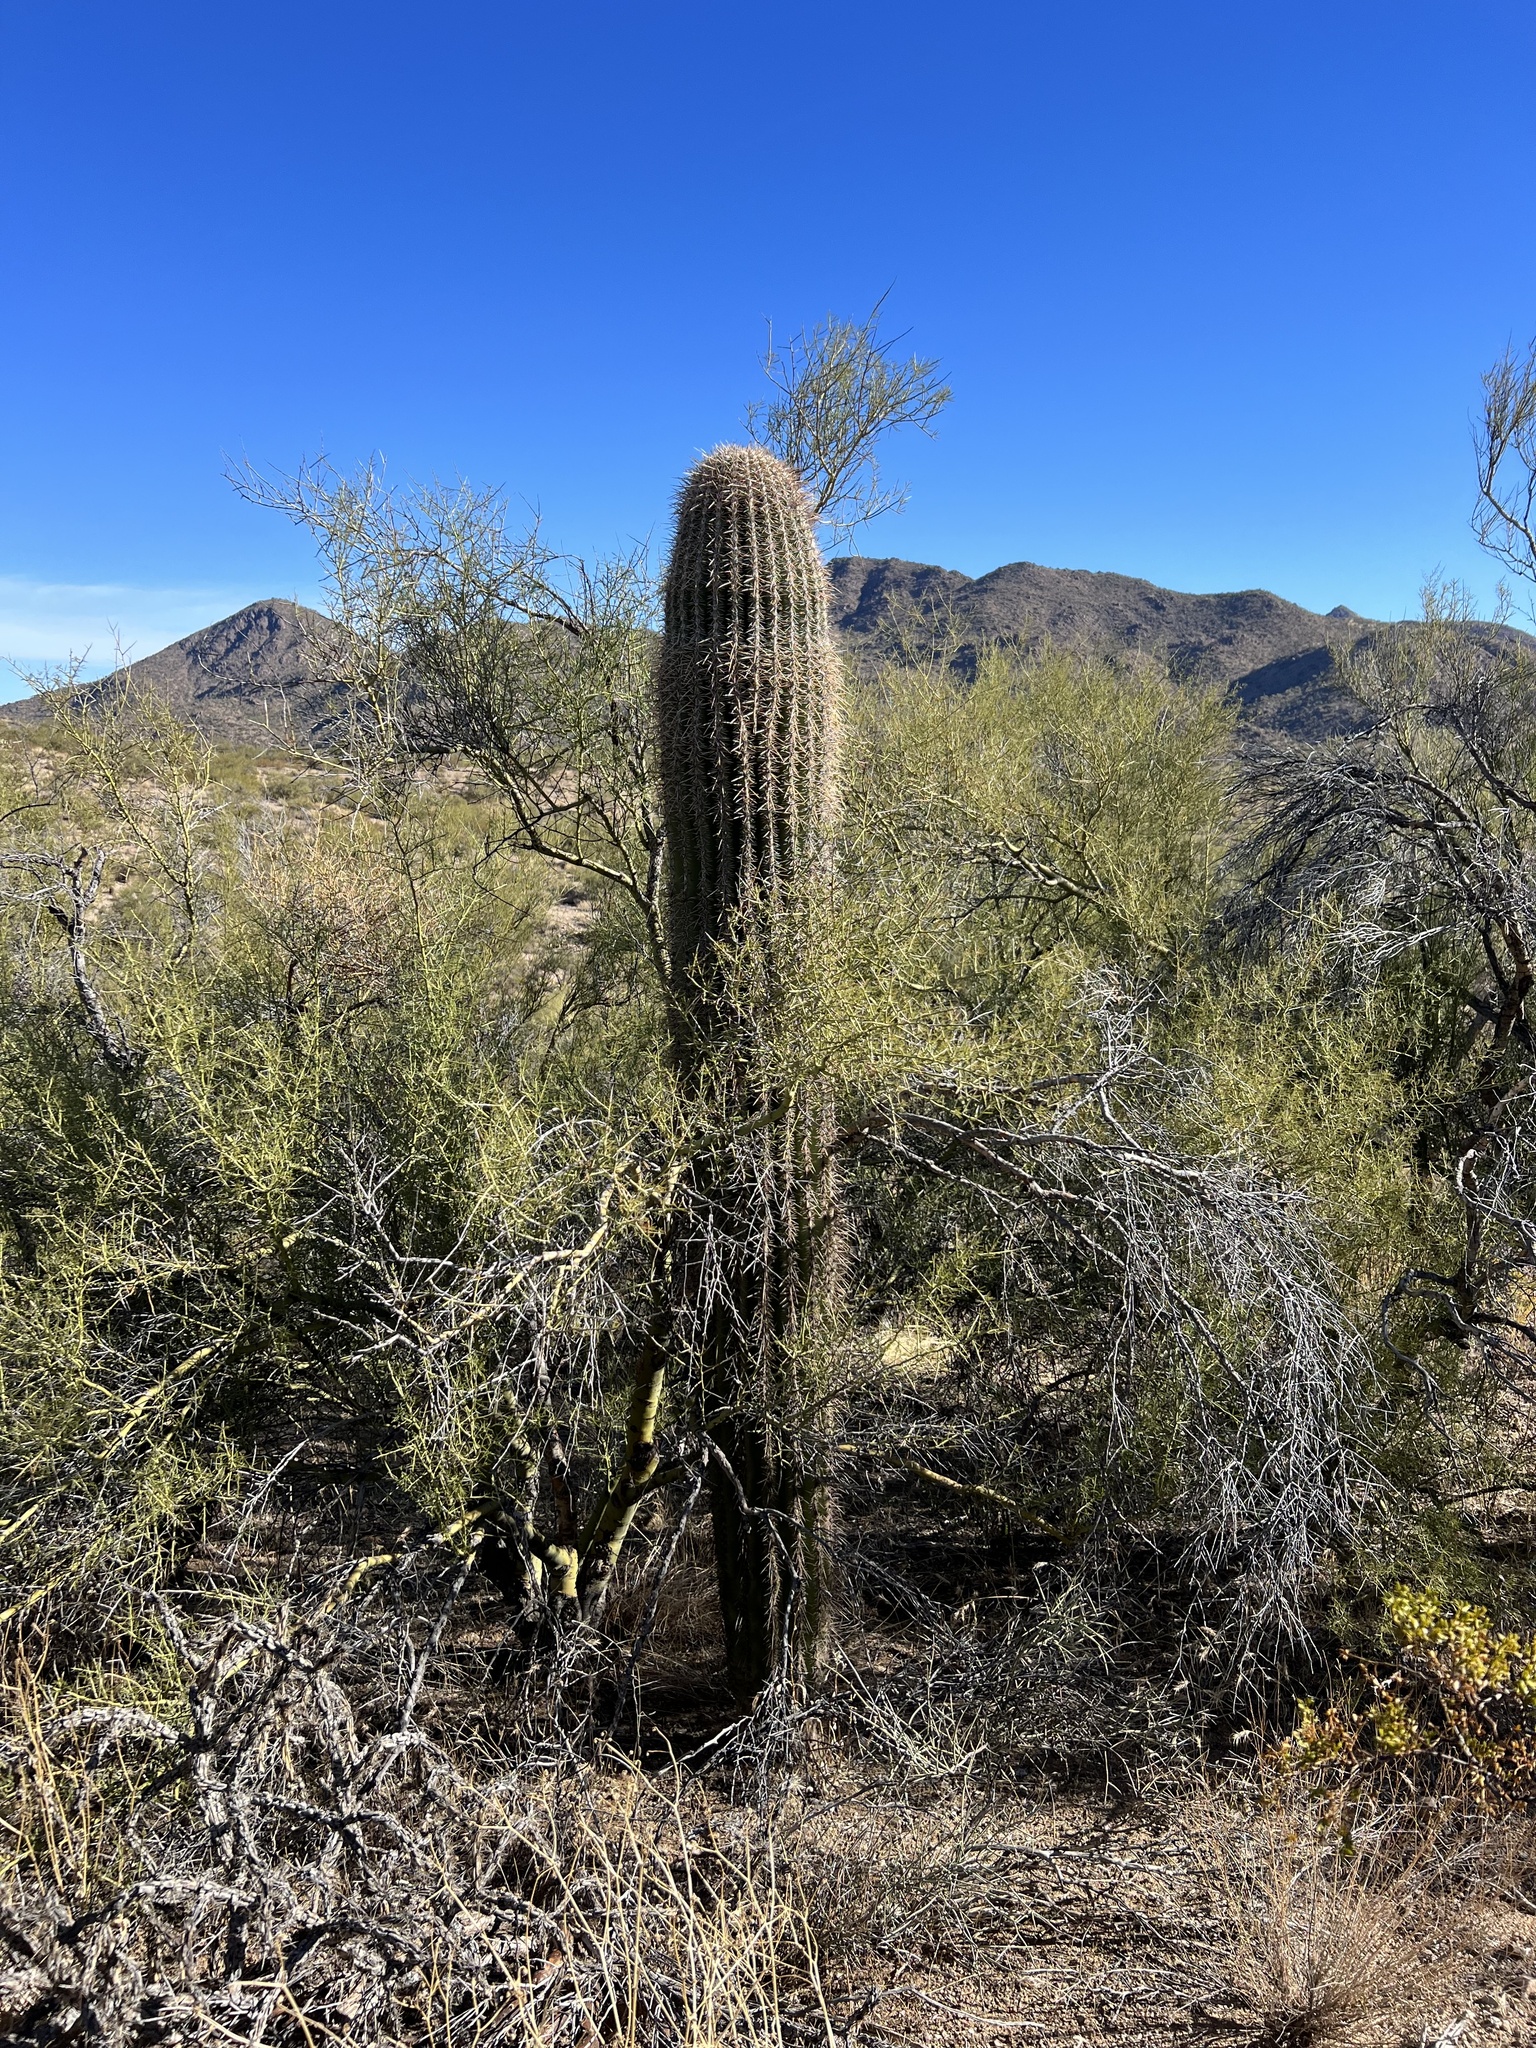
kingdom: Plantae
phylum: Tracheophyta
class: Magnoliopsida
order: Caryophyllales
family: Cactaceae
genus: Carnegiea
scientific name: Carnegiea gigantea
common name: Saguaro
